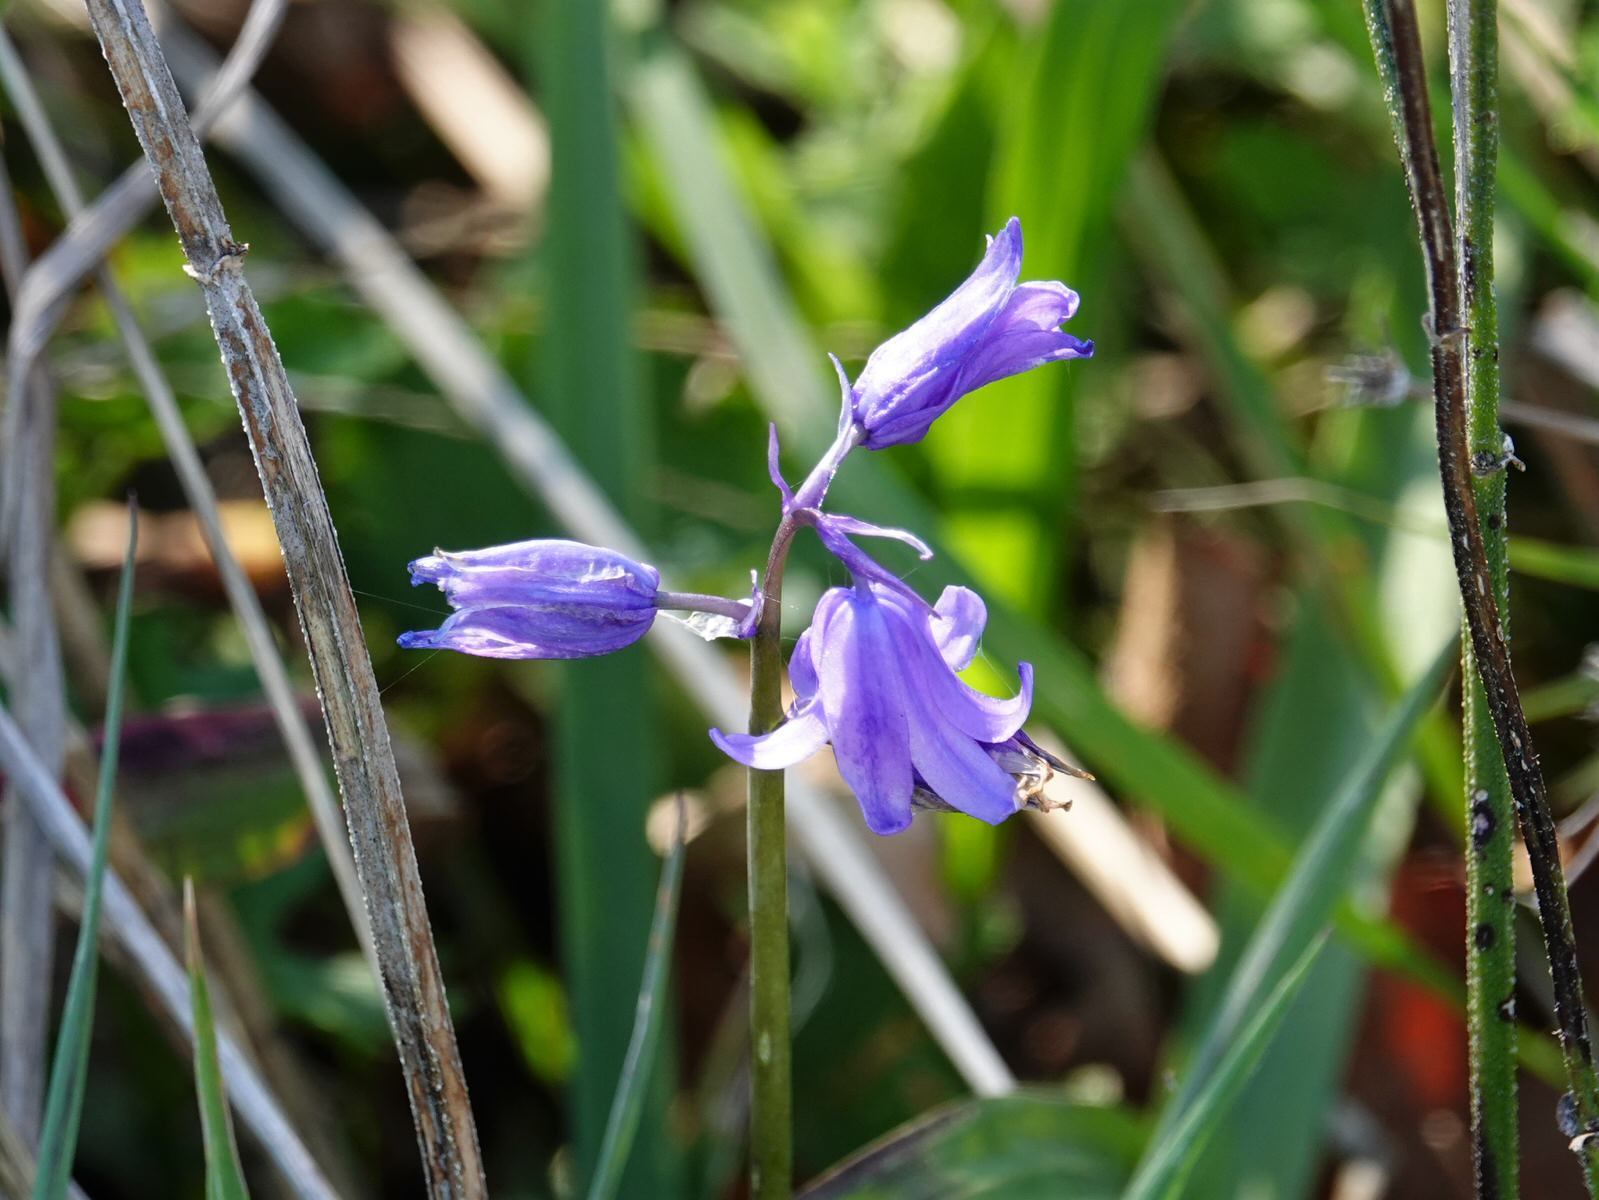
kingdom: Plantae
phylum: Tracheophyta
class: Liliopsida
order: Asparagales
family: Asparagaceae
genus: Hyacinthoides
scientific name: Hyacinthoides massartiana
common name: Hyacinthoides
